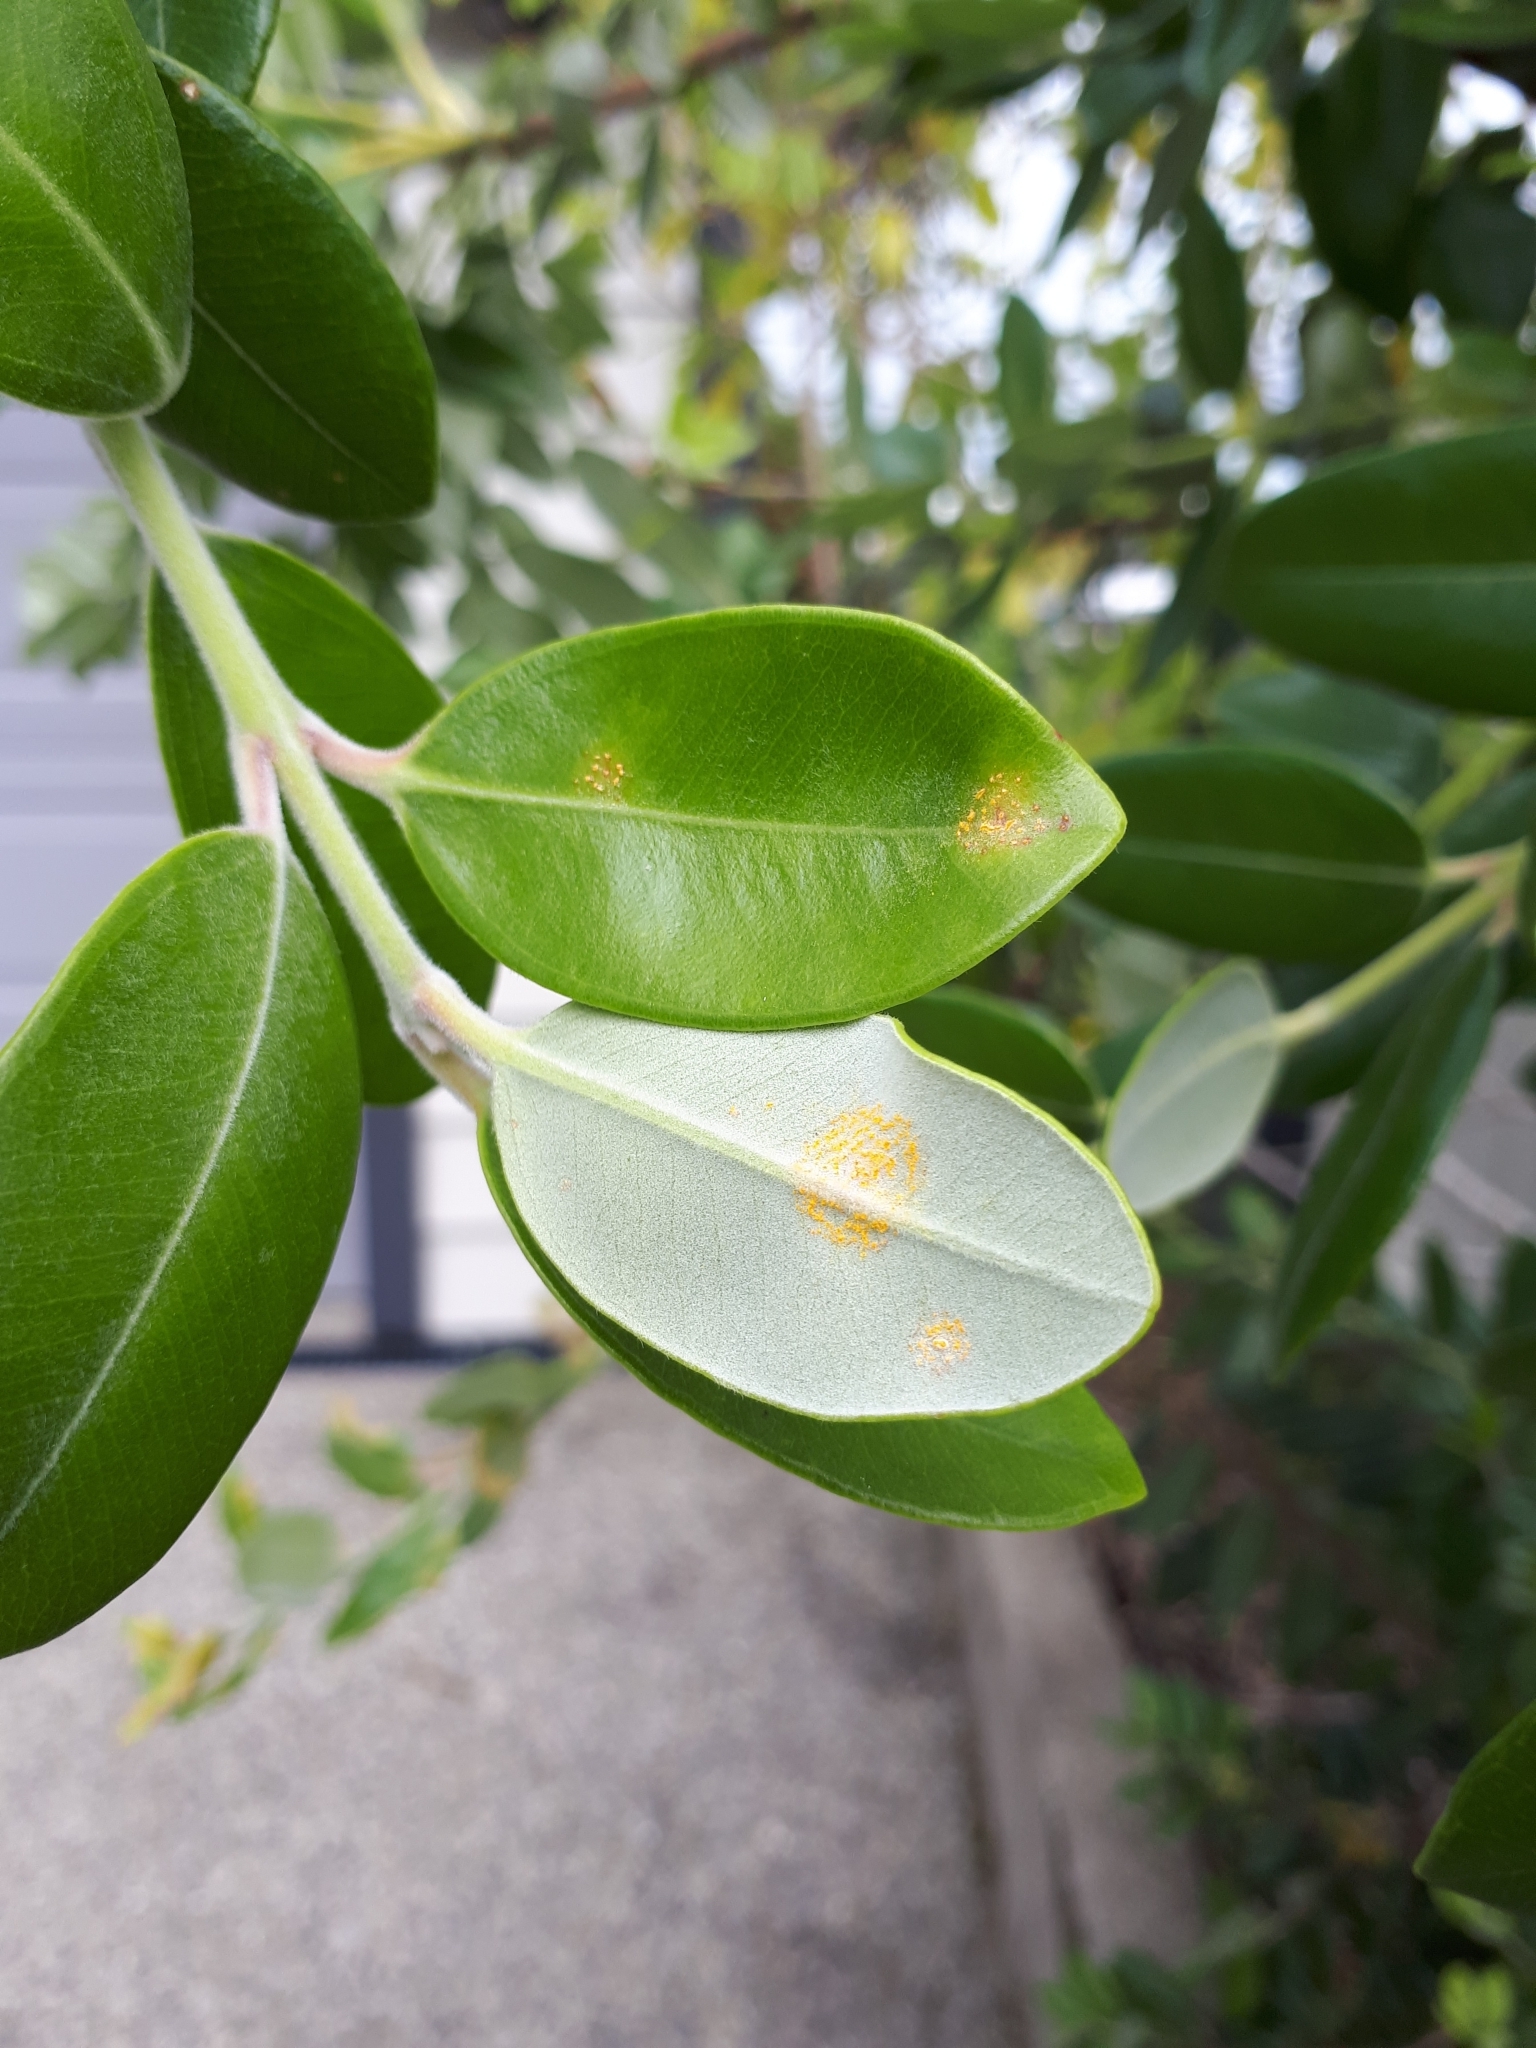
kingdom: Fungi
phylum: Basidiomycota
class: Pucciniomycetes
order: Pucciniales
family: Sphaerophragmiaceae
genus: Austropuccinia
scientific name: Austropuccinia psidii
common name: Myrtle rust
